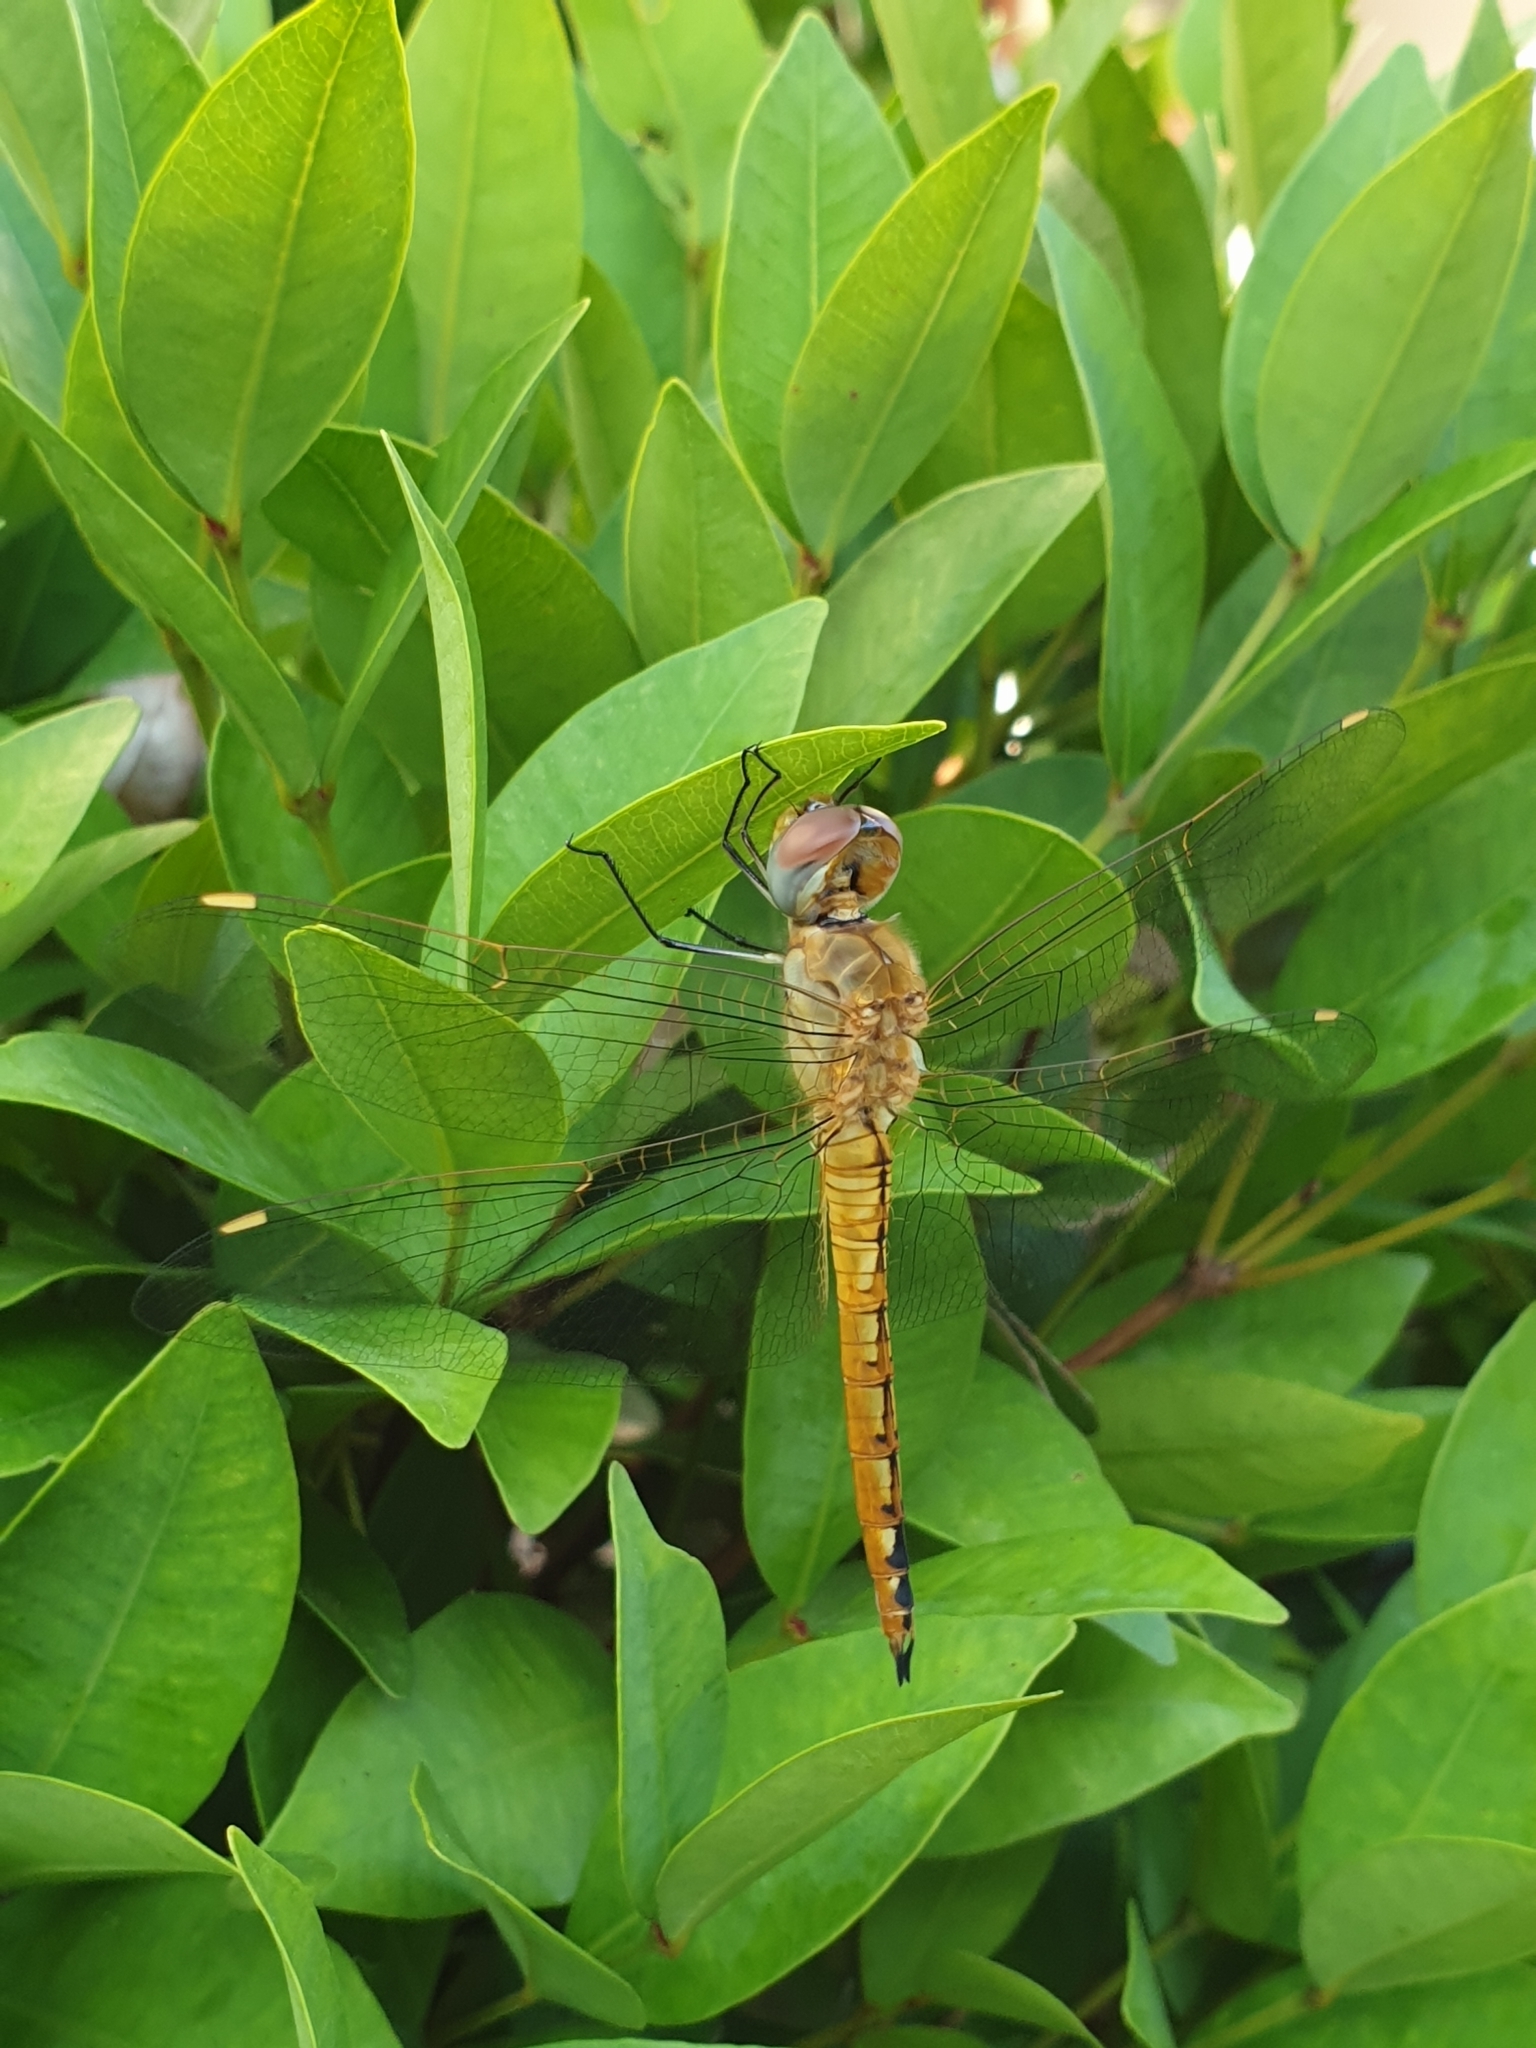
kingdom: Animalia
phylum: Arthropoda
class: Insecta
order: Odonata
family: Libellulidae
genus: Pantala
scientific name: Pantala flavescens
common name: Wandering glider
